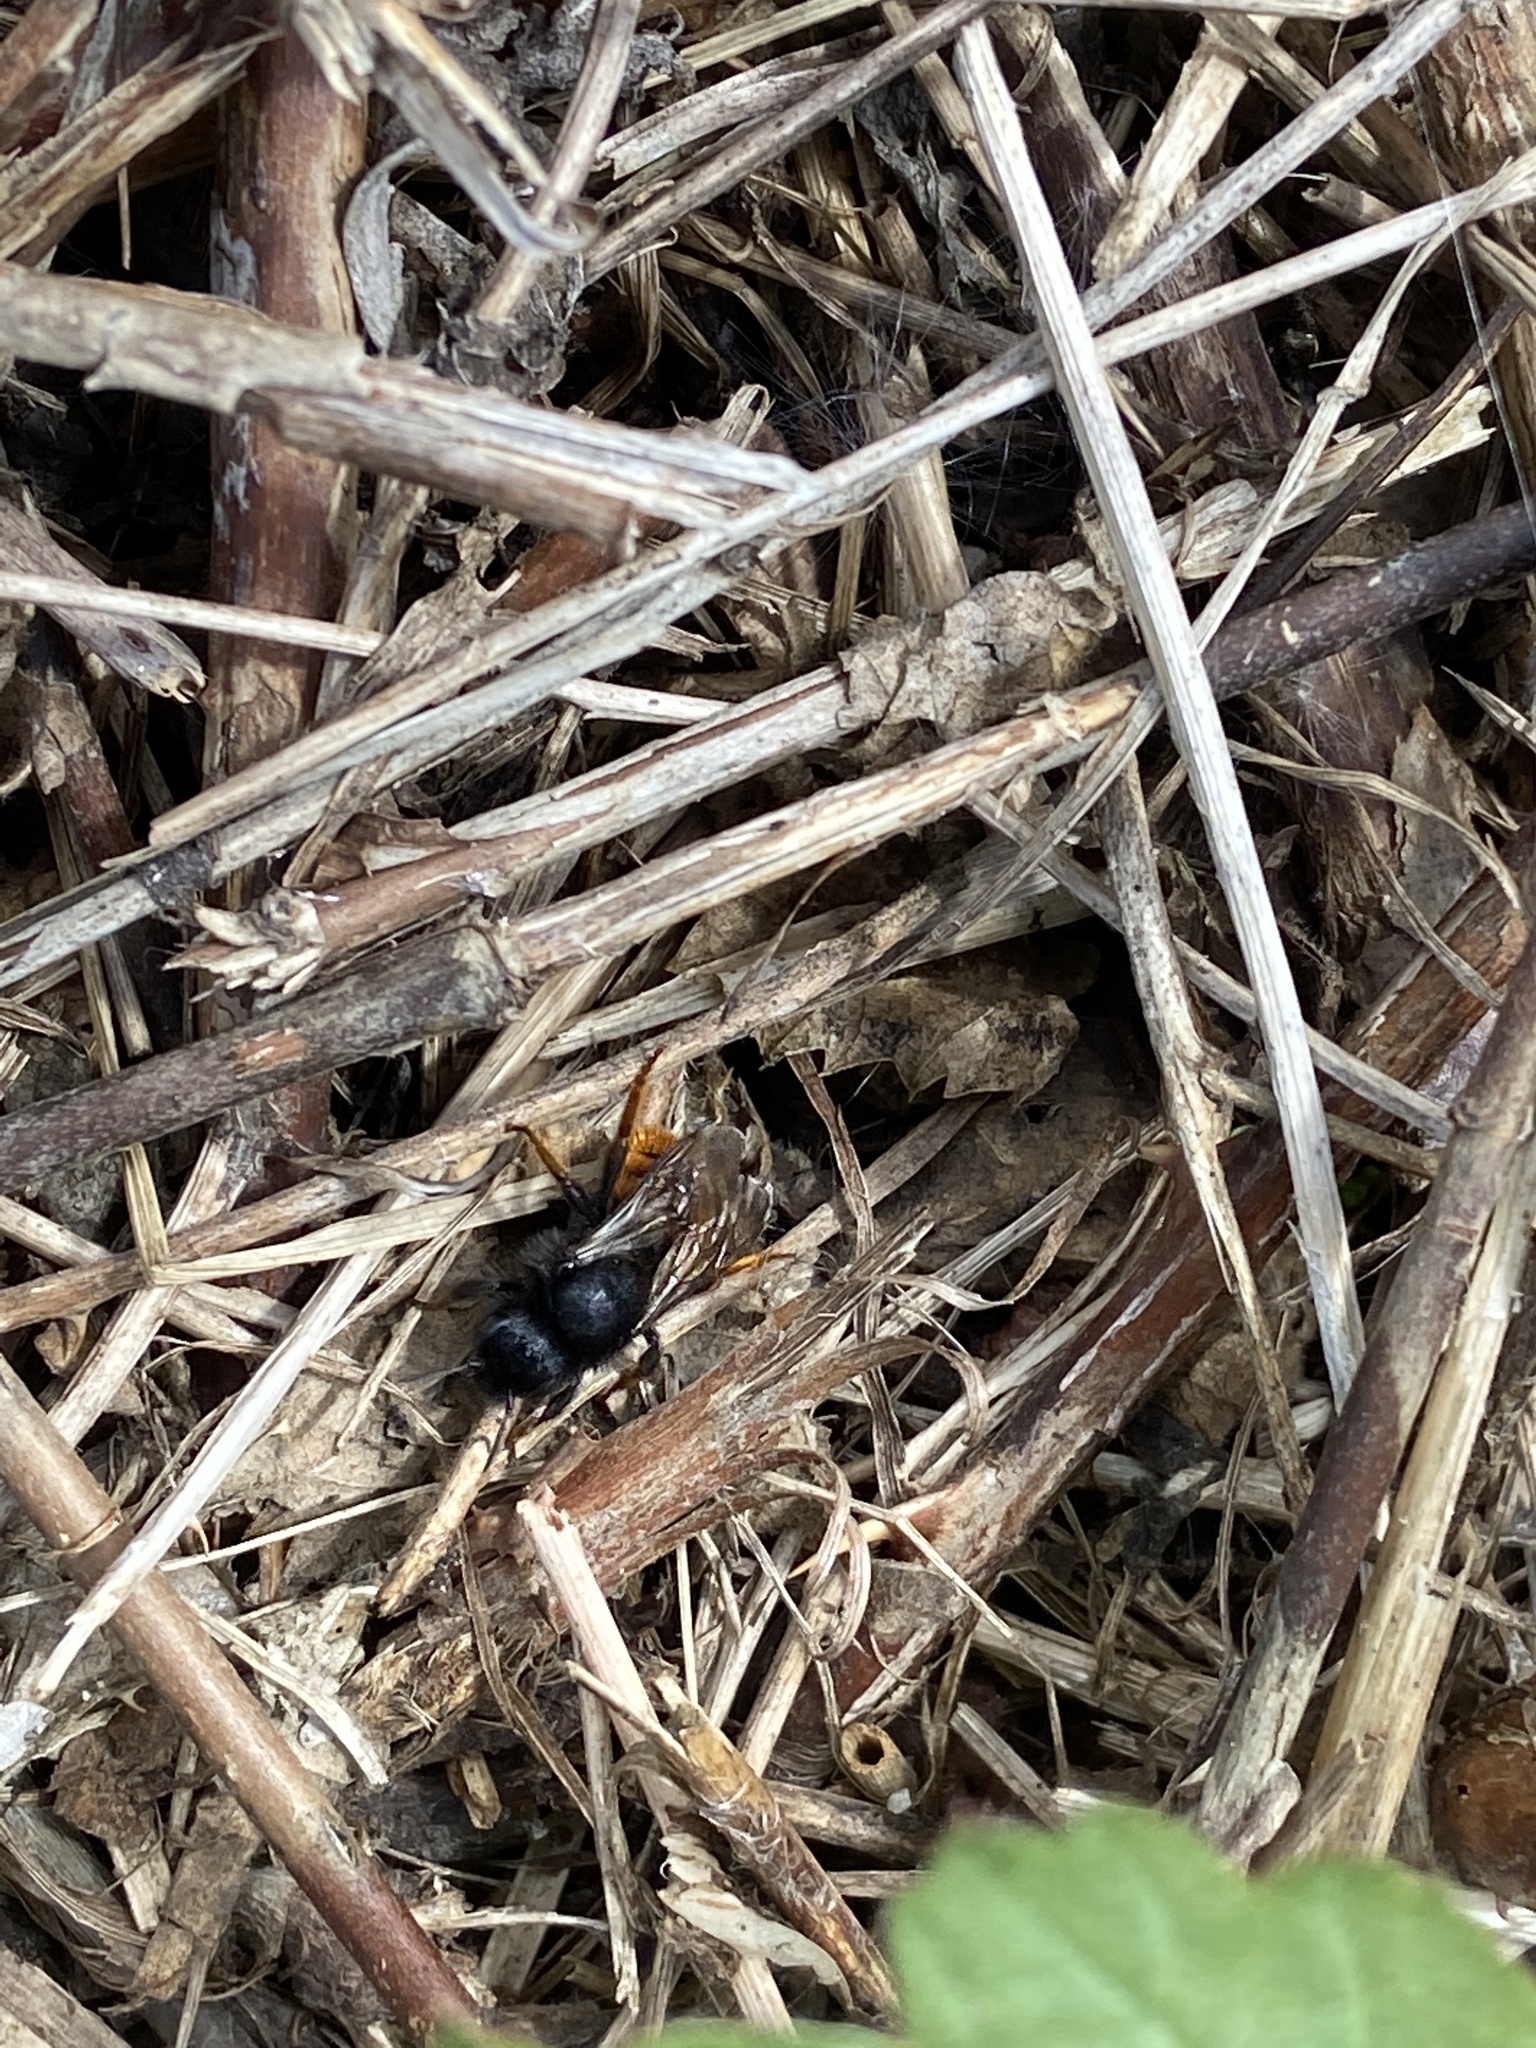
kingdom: Animalia
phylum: Arthropoda
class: Insecta
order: Hymenoptera
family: Megachilidae
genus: Osmia
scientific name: Osmia bicolor
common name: Red-tailed mason bee
